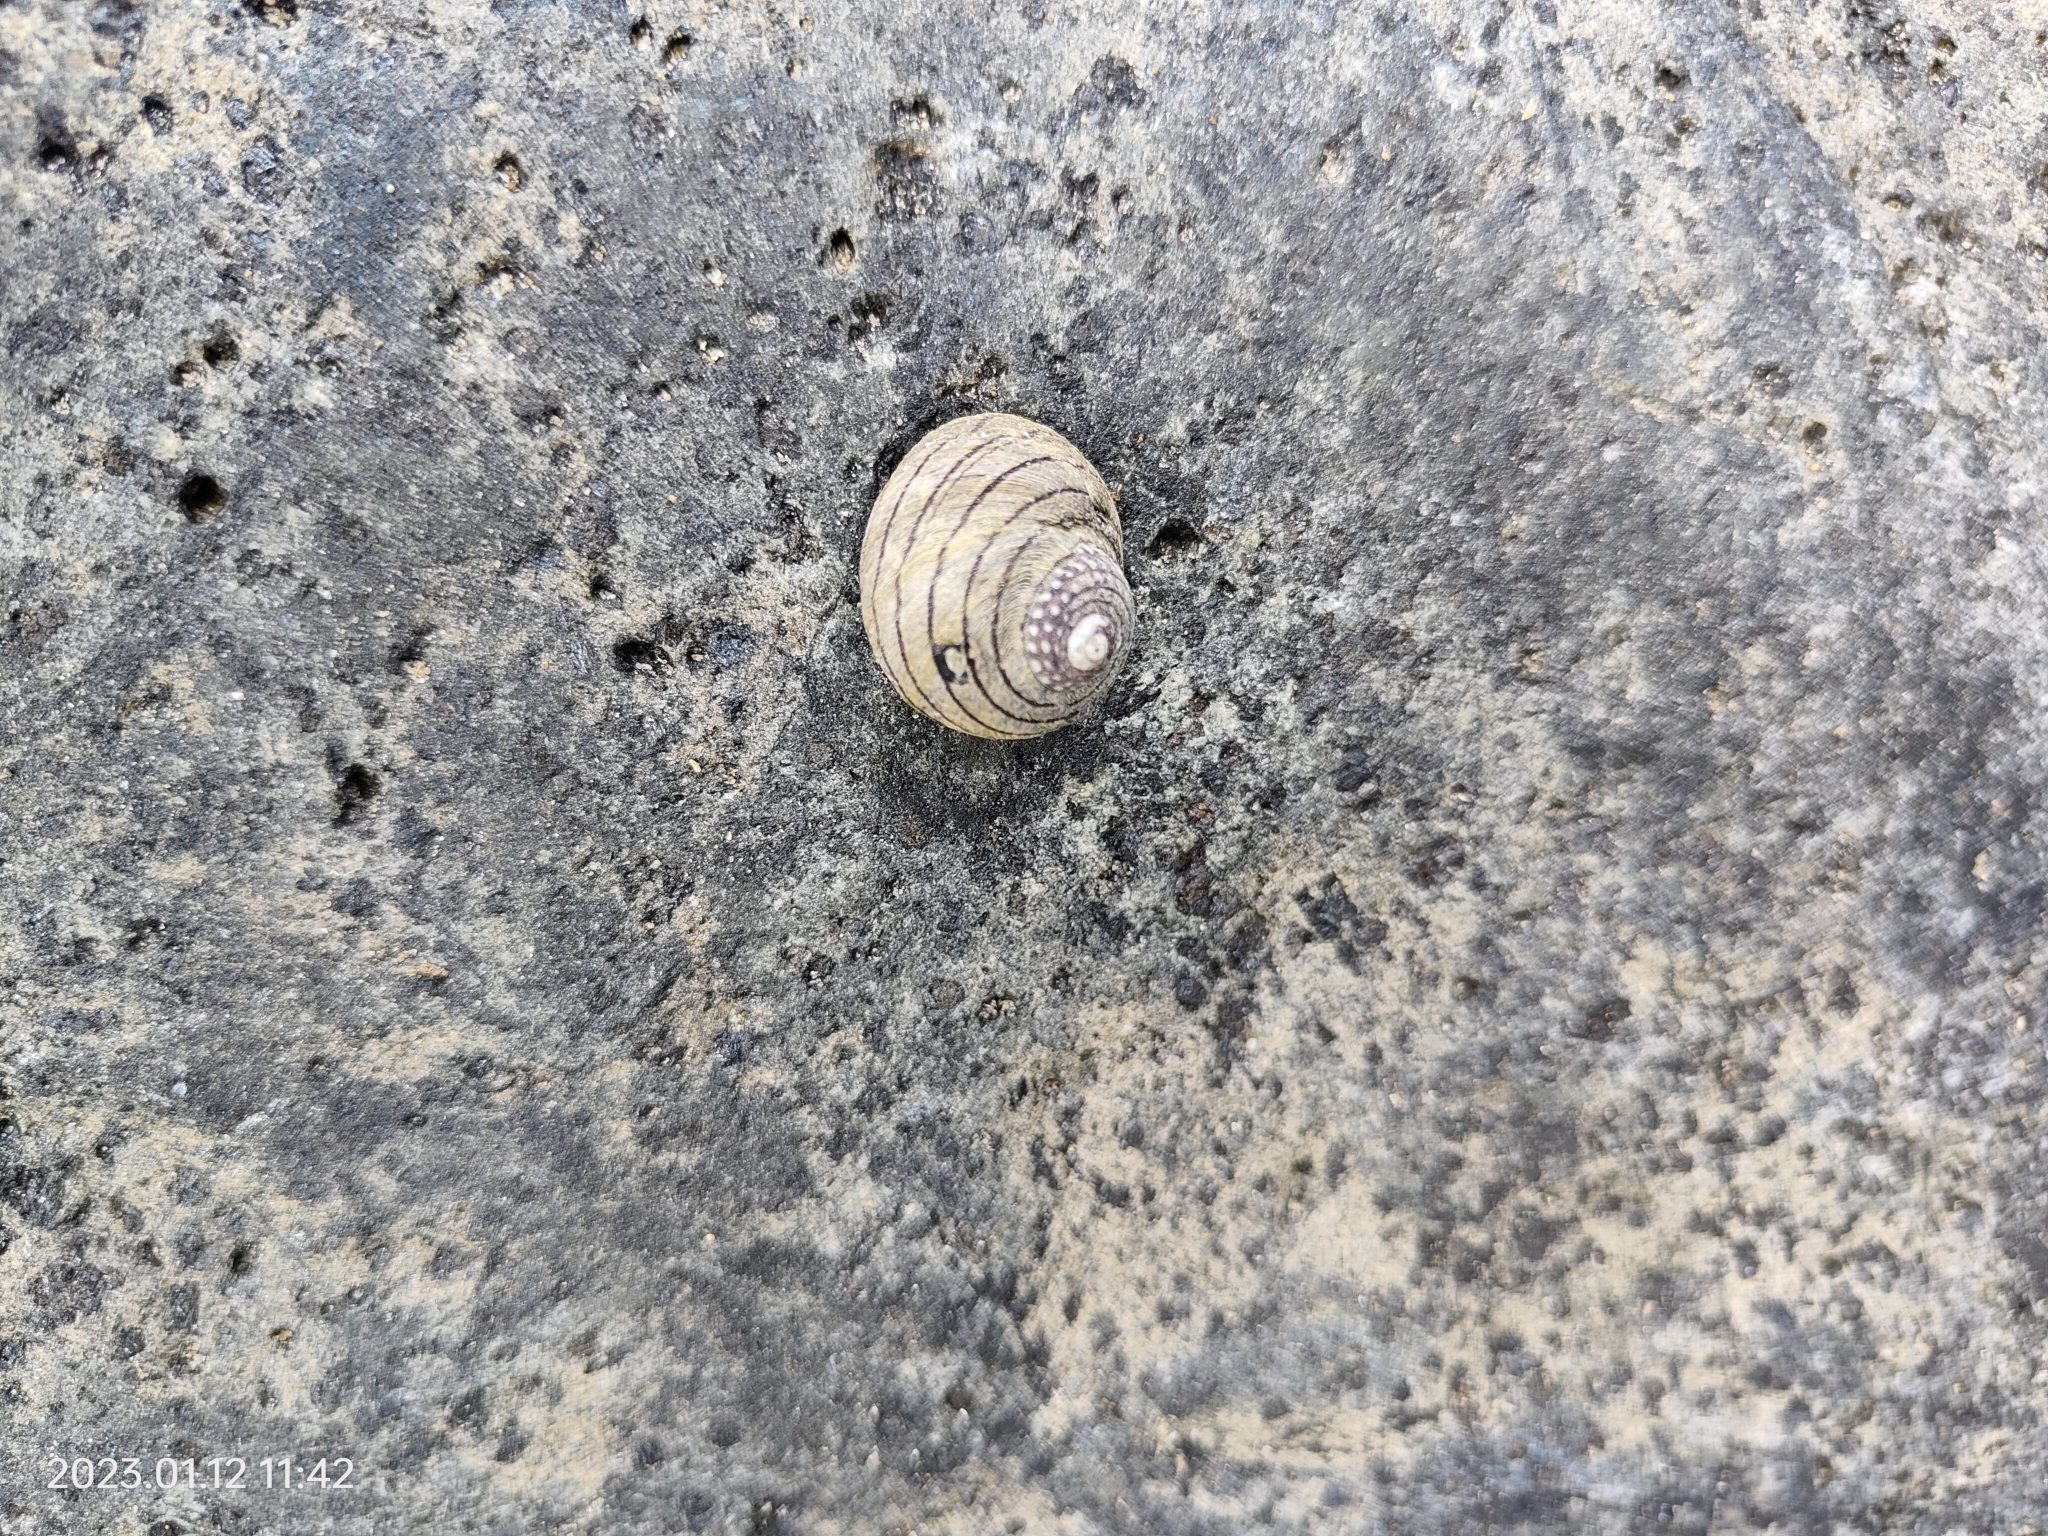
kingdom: Animalia
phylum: Mollusca
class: Gastropoda
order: Trochida
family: Trochidae
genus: Diloma
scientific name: Diloma aethiops
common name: Scorched monodont
